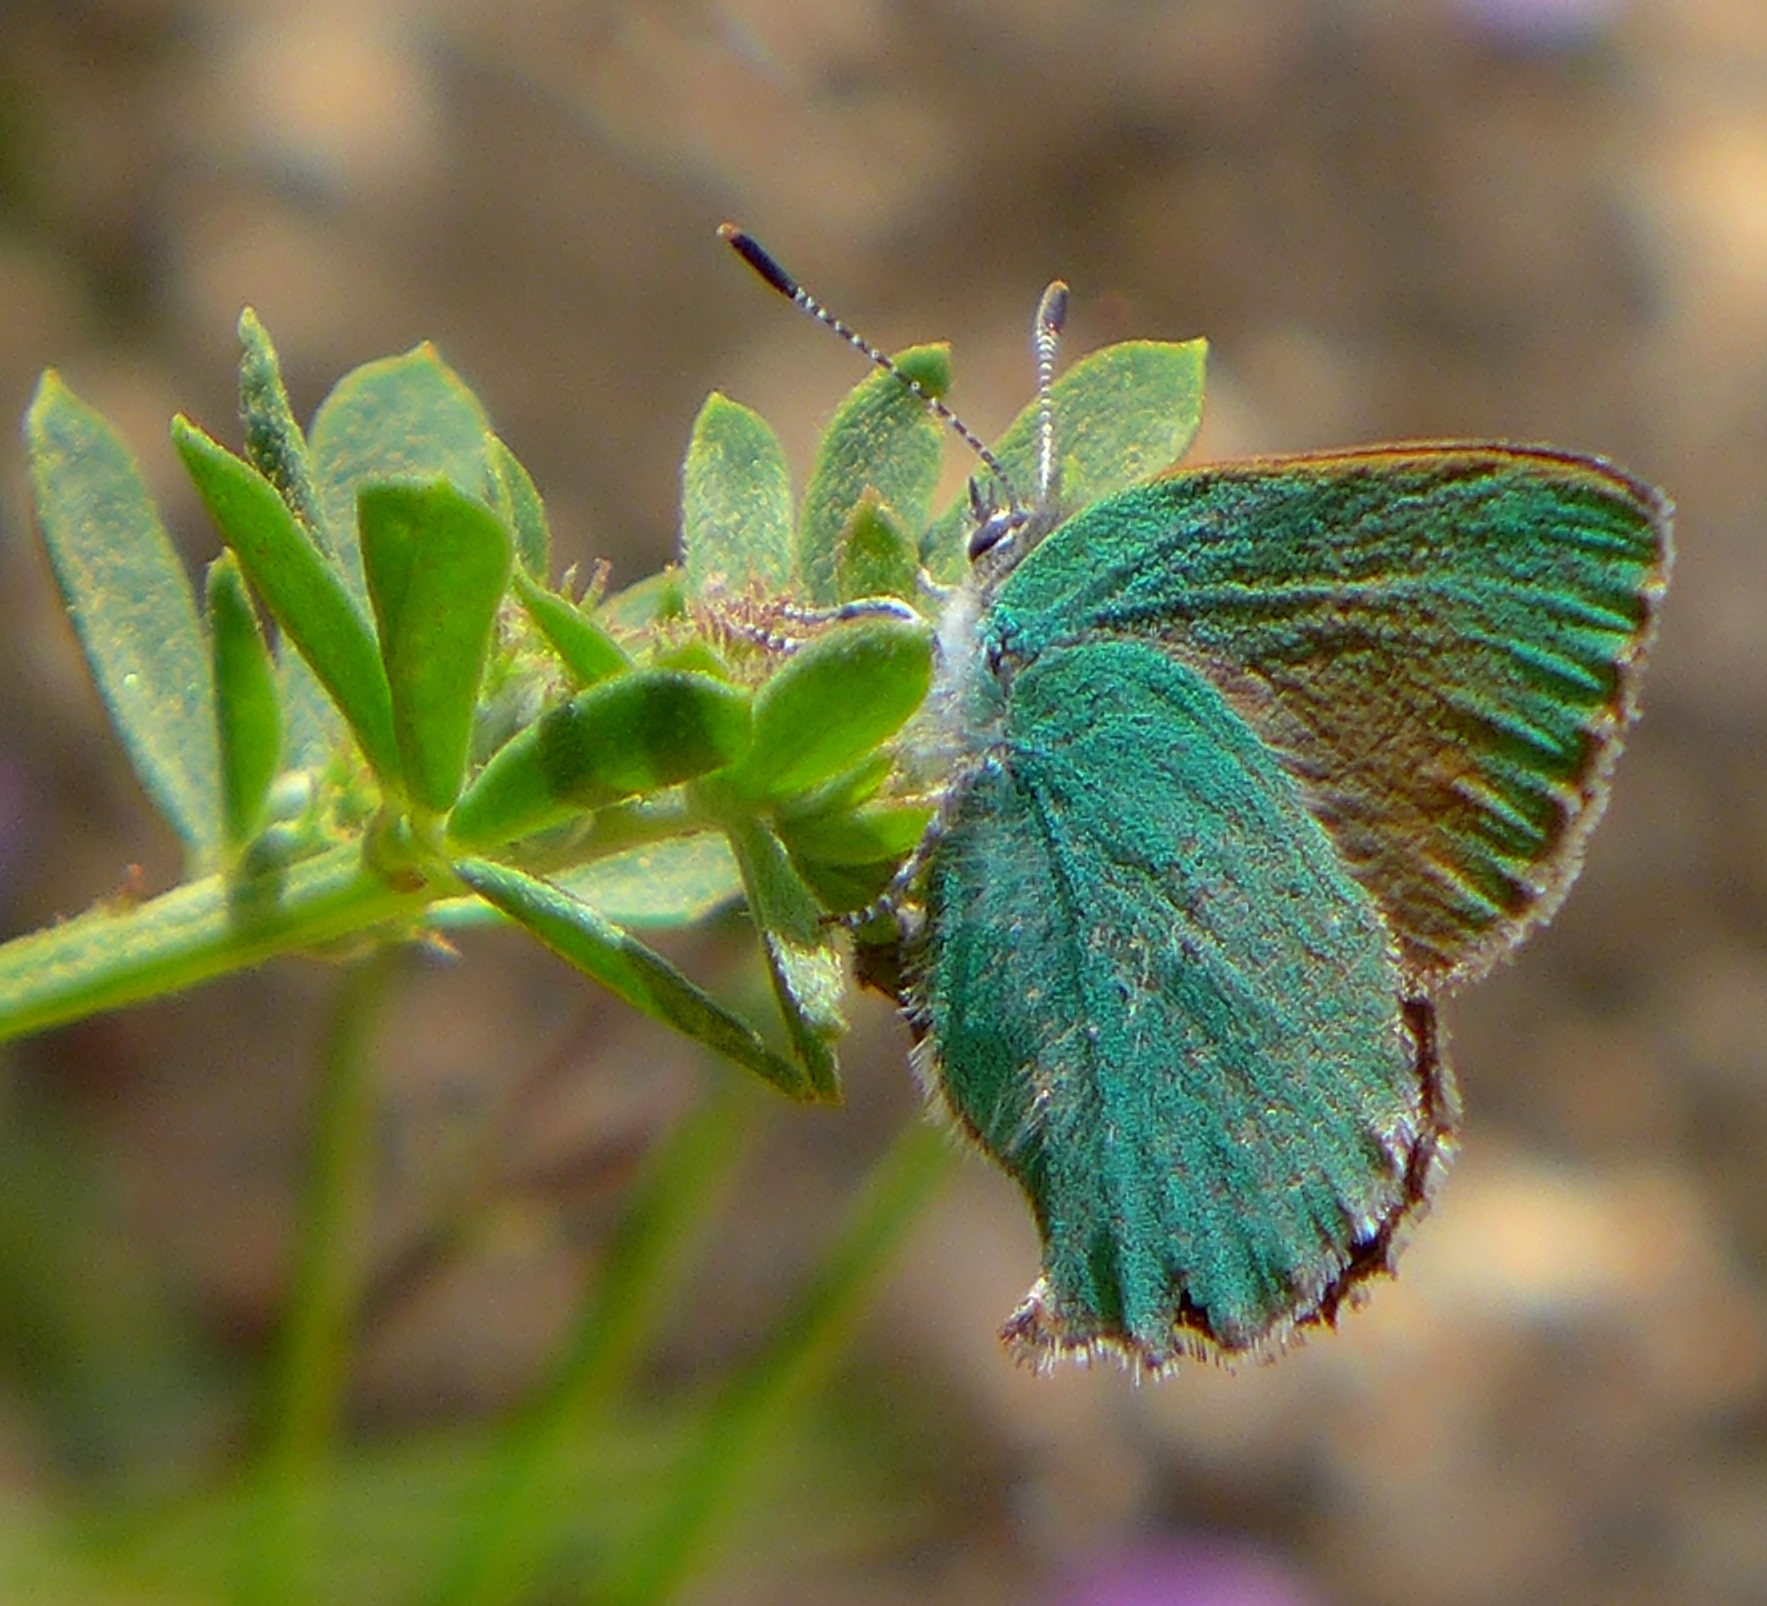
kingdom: Animalia
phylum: Arthropoda
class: Insecta
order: Lepidoptera
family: Lycaenidae
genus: Callophrys
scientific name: Callophrys dumetorum
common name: Bramble hairstreak
